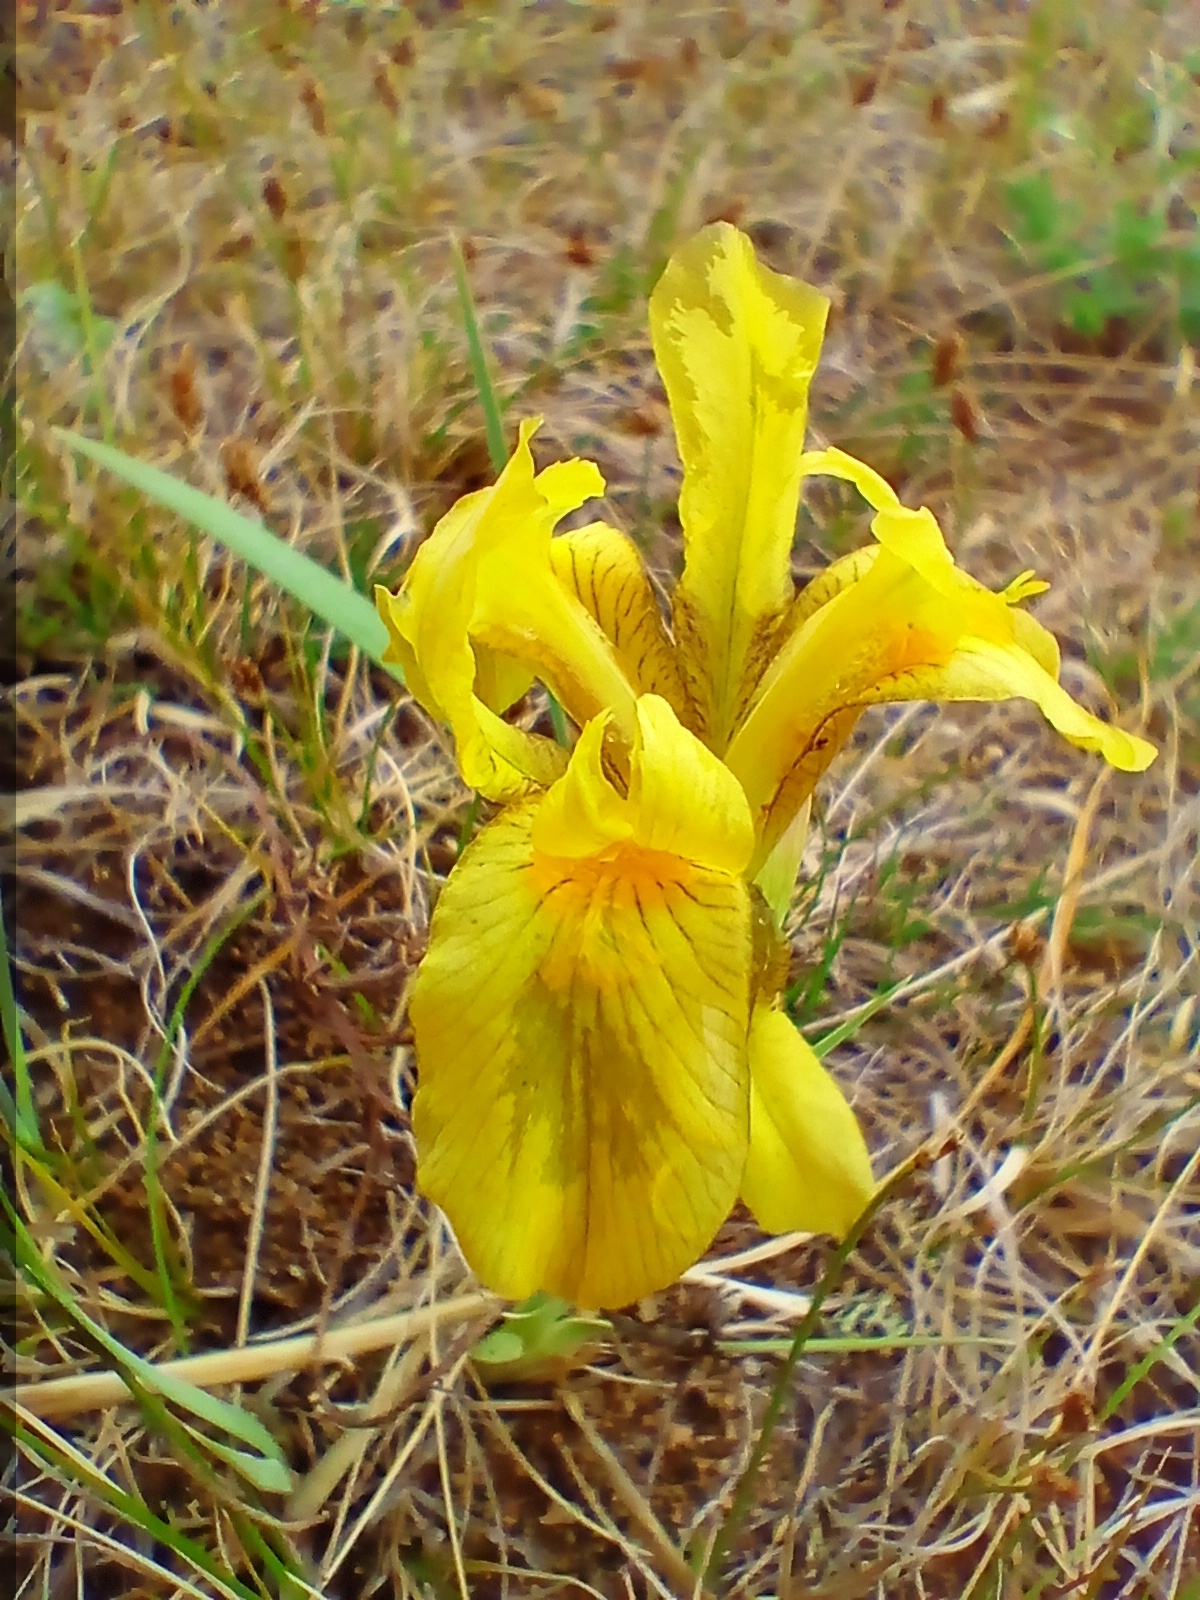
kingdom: Plantae
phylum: Tracheophyta
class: Liliopsida
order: Asparagales
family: Iridaceae
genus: Iris
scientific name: Iris humilis
